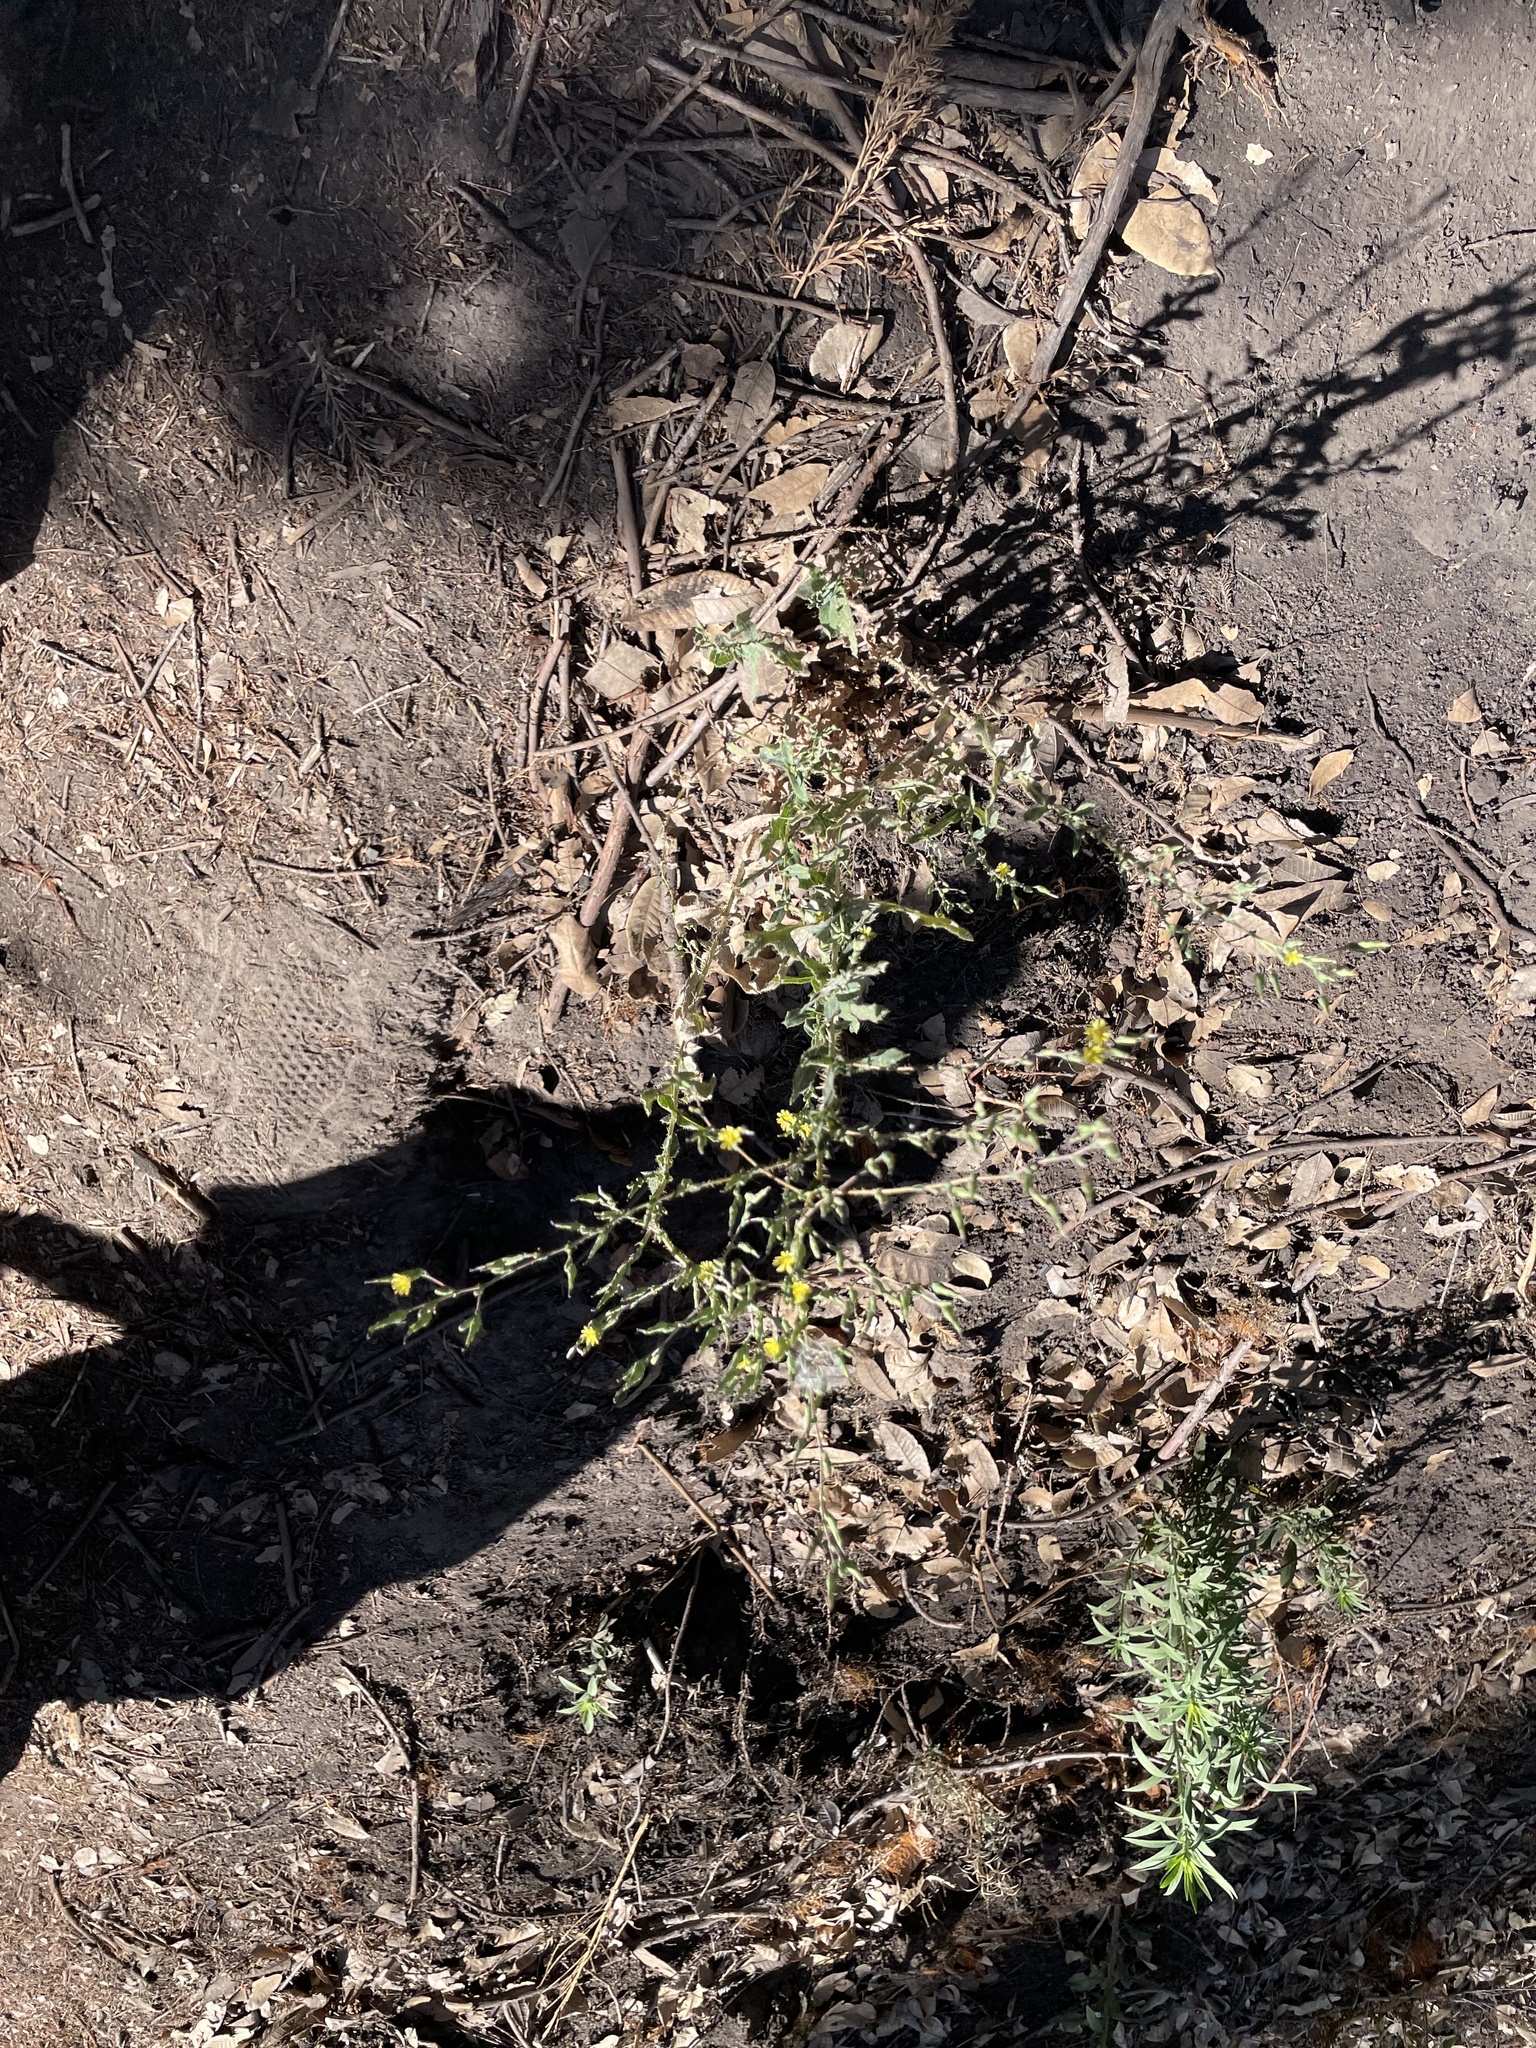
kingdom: Plantae
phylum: Tracheophyta
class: Magnoliopsida
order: Asterales
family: Asteraceae
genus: Lactuca
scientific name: Lactuca serriola
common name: Prickly lettuce
